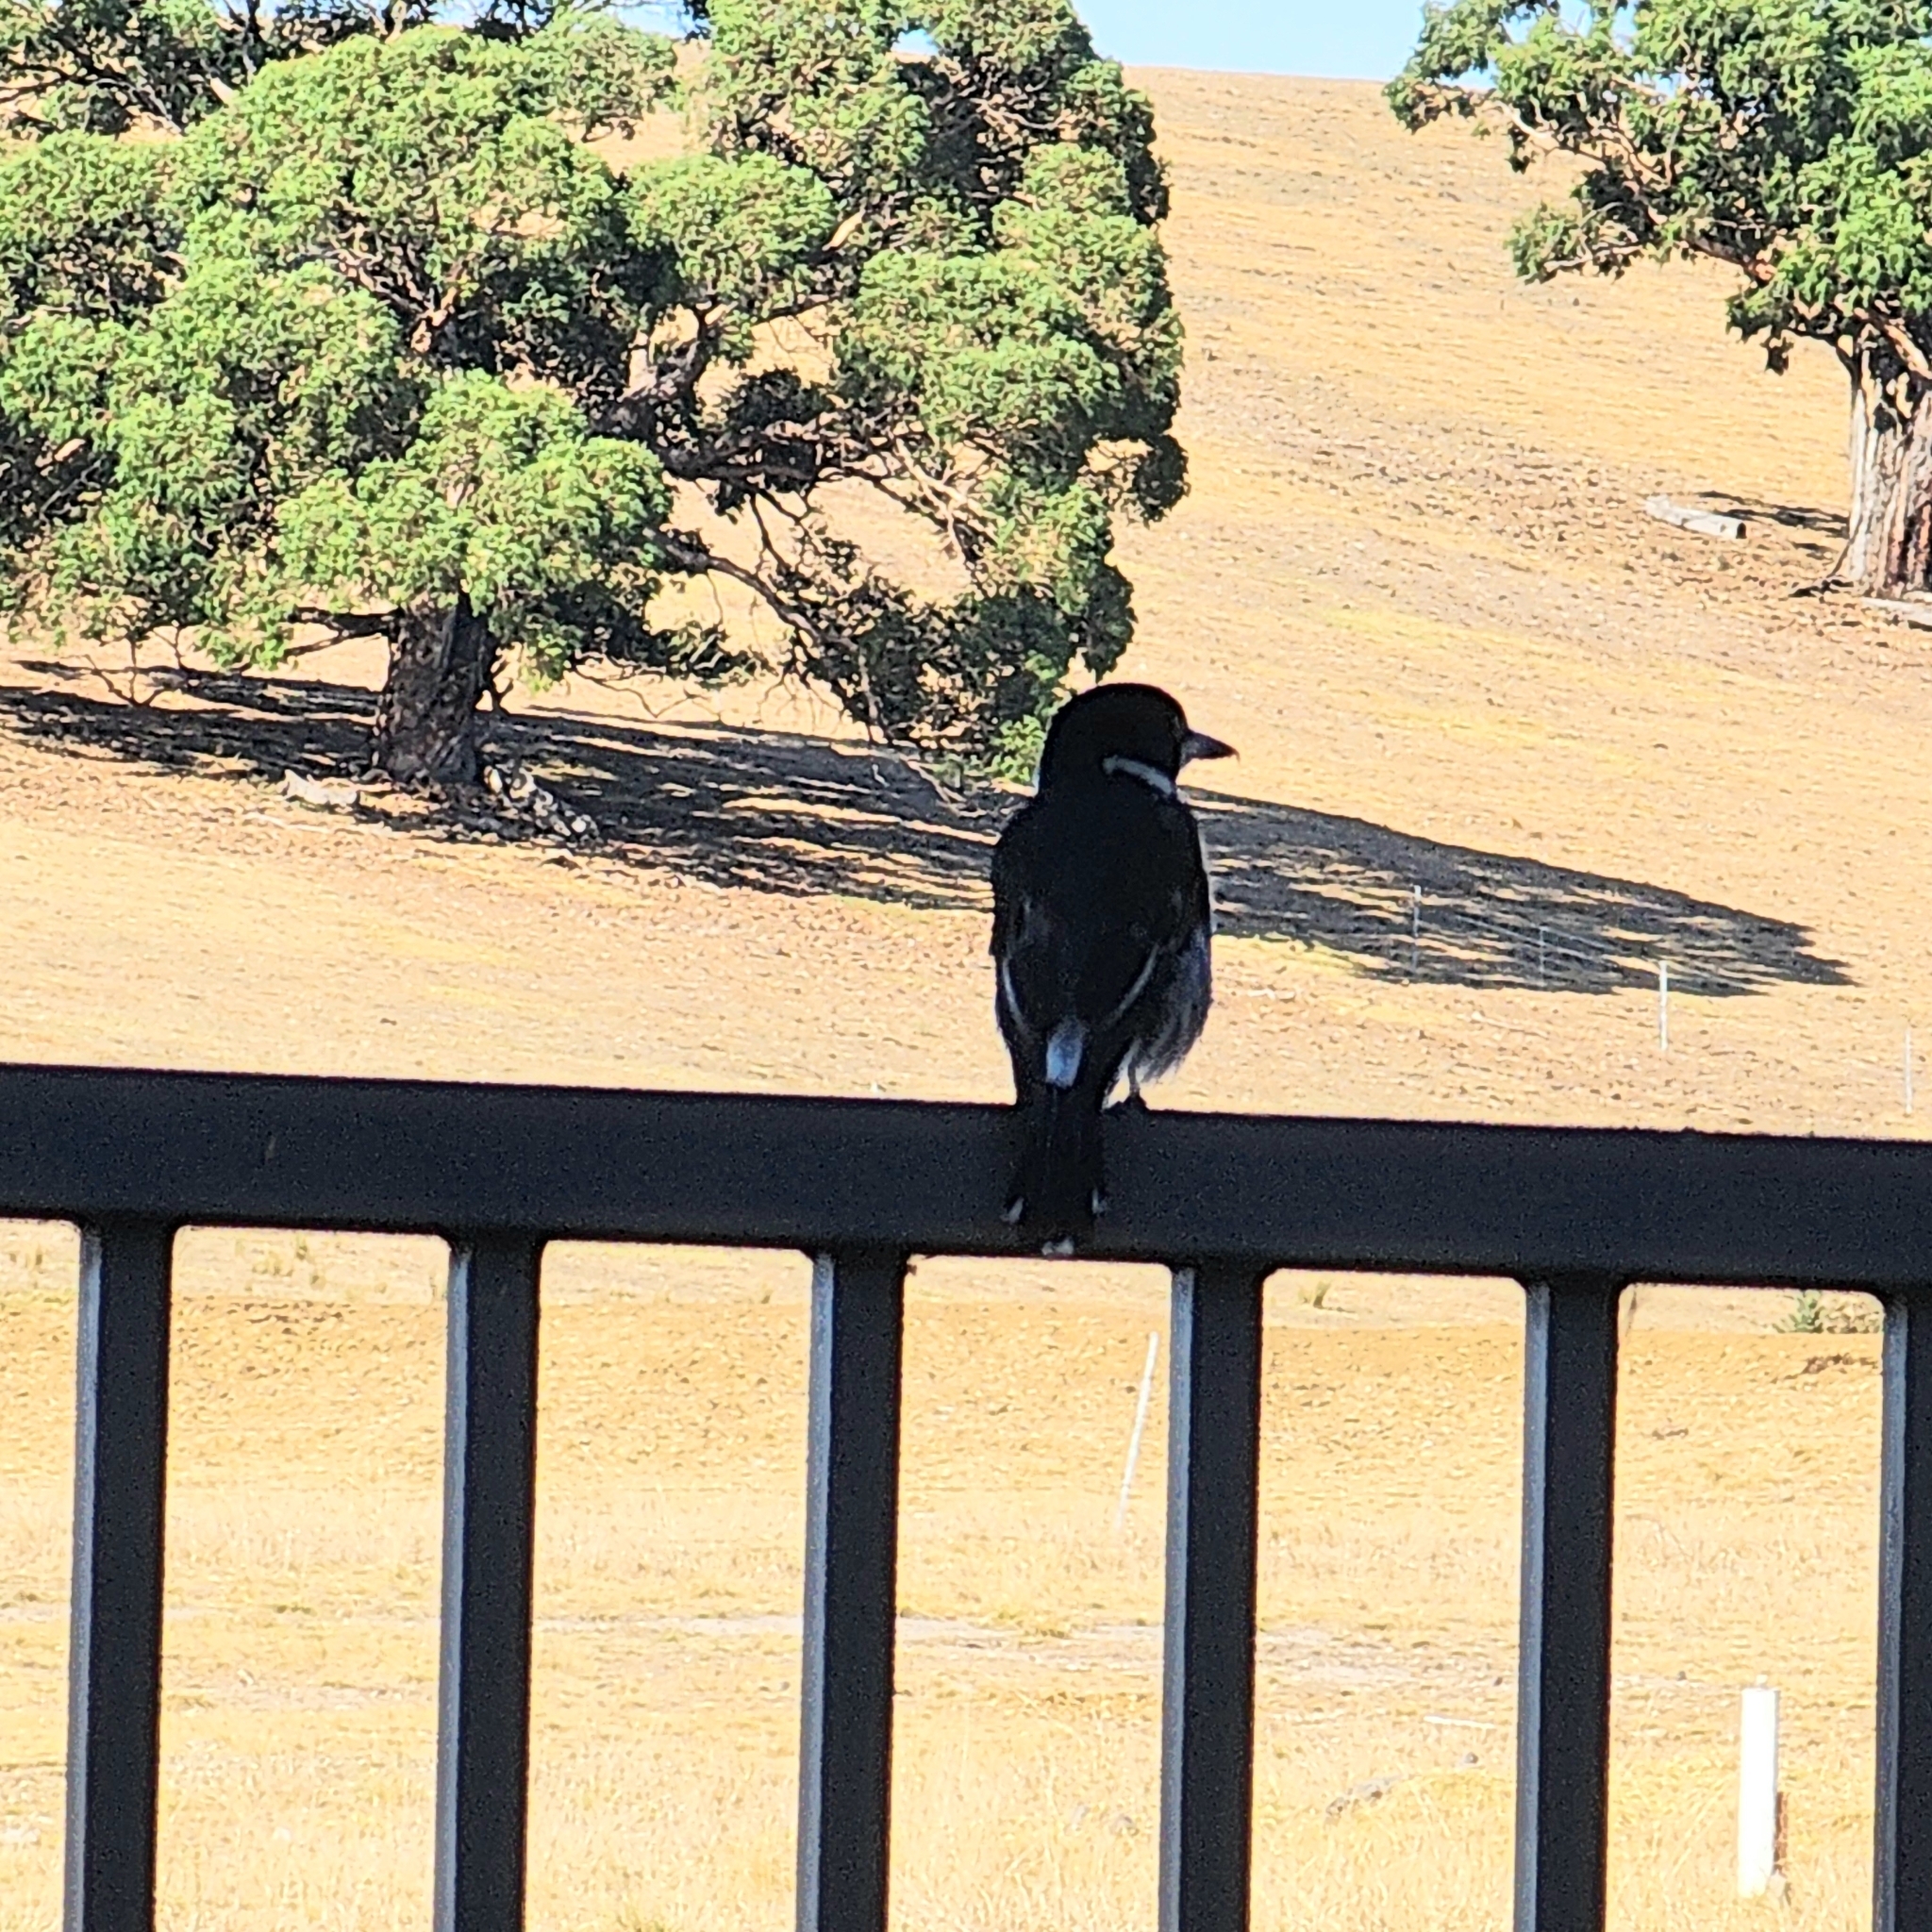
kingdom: Animalia
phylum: Chordata
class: Aves
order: Passeriformes
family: Cracticidae
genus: Cracticus
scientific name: Cracticus torquatus
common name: Grey butcherbird
